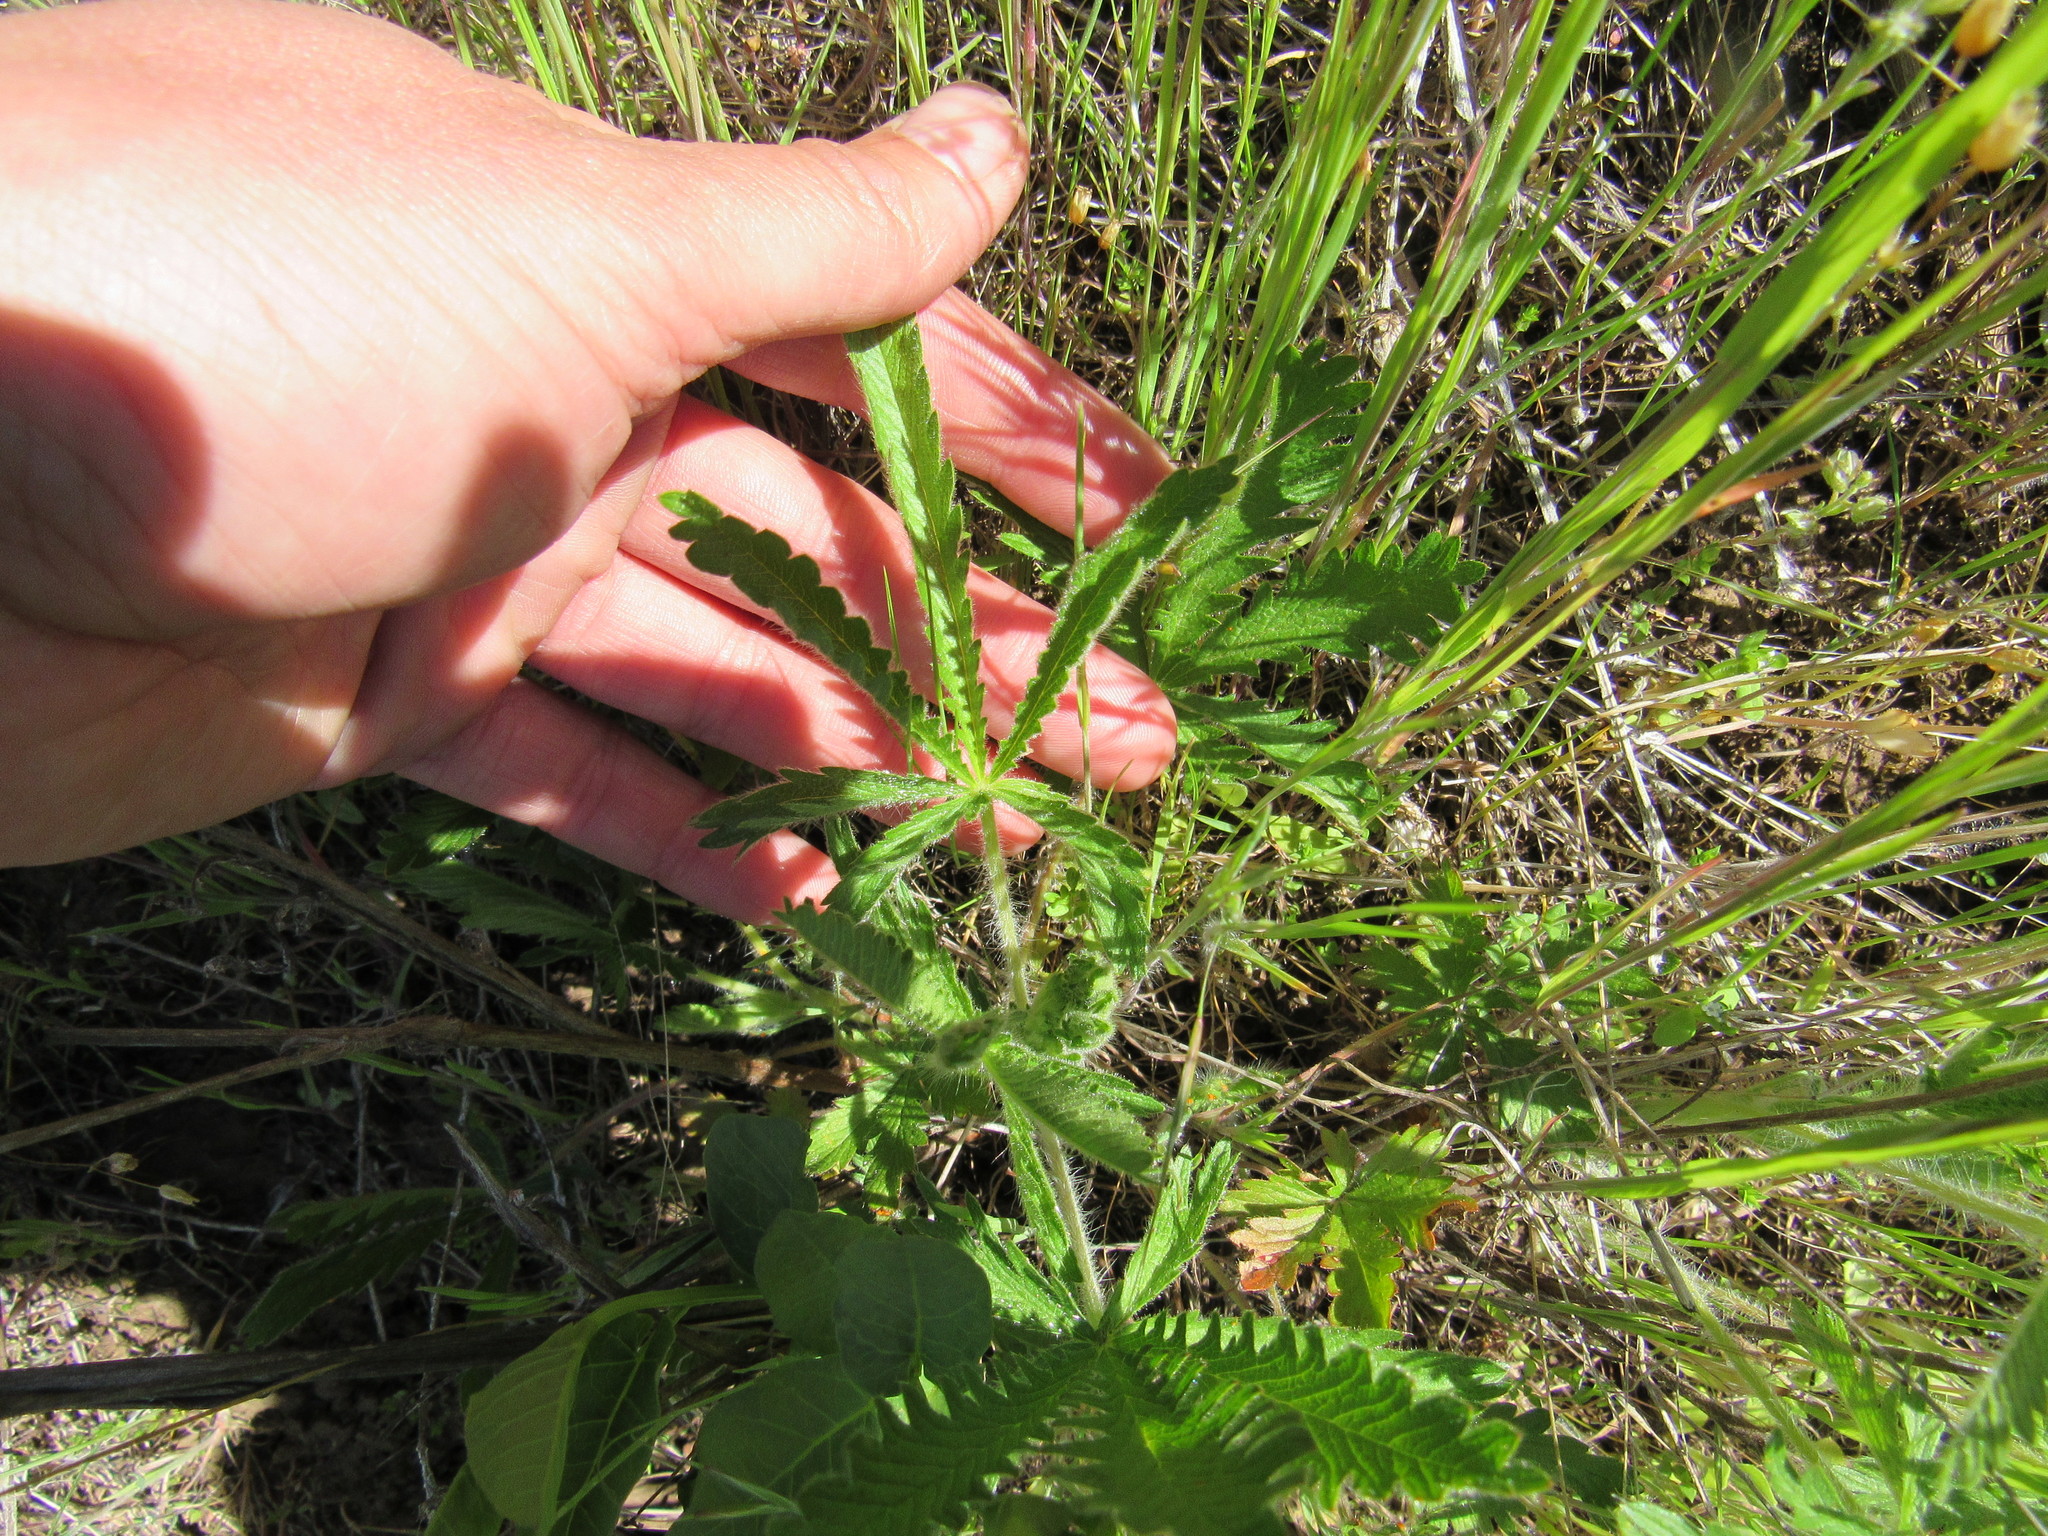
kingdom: Plantae
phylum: Tracheophyta
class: Magnoliopsida
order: Rosales
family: Rosaceae
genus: Potentilla
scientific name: Potentilla recta
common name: Sulphur cinquefoil
